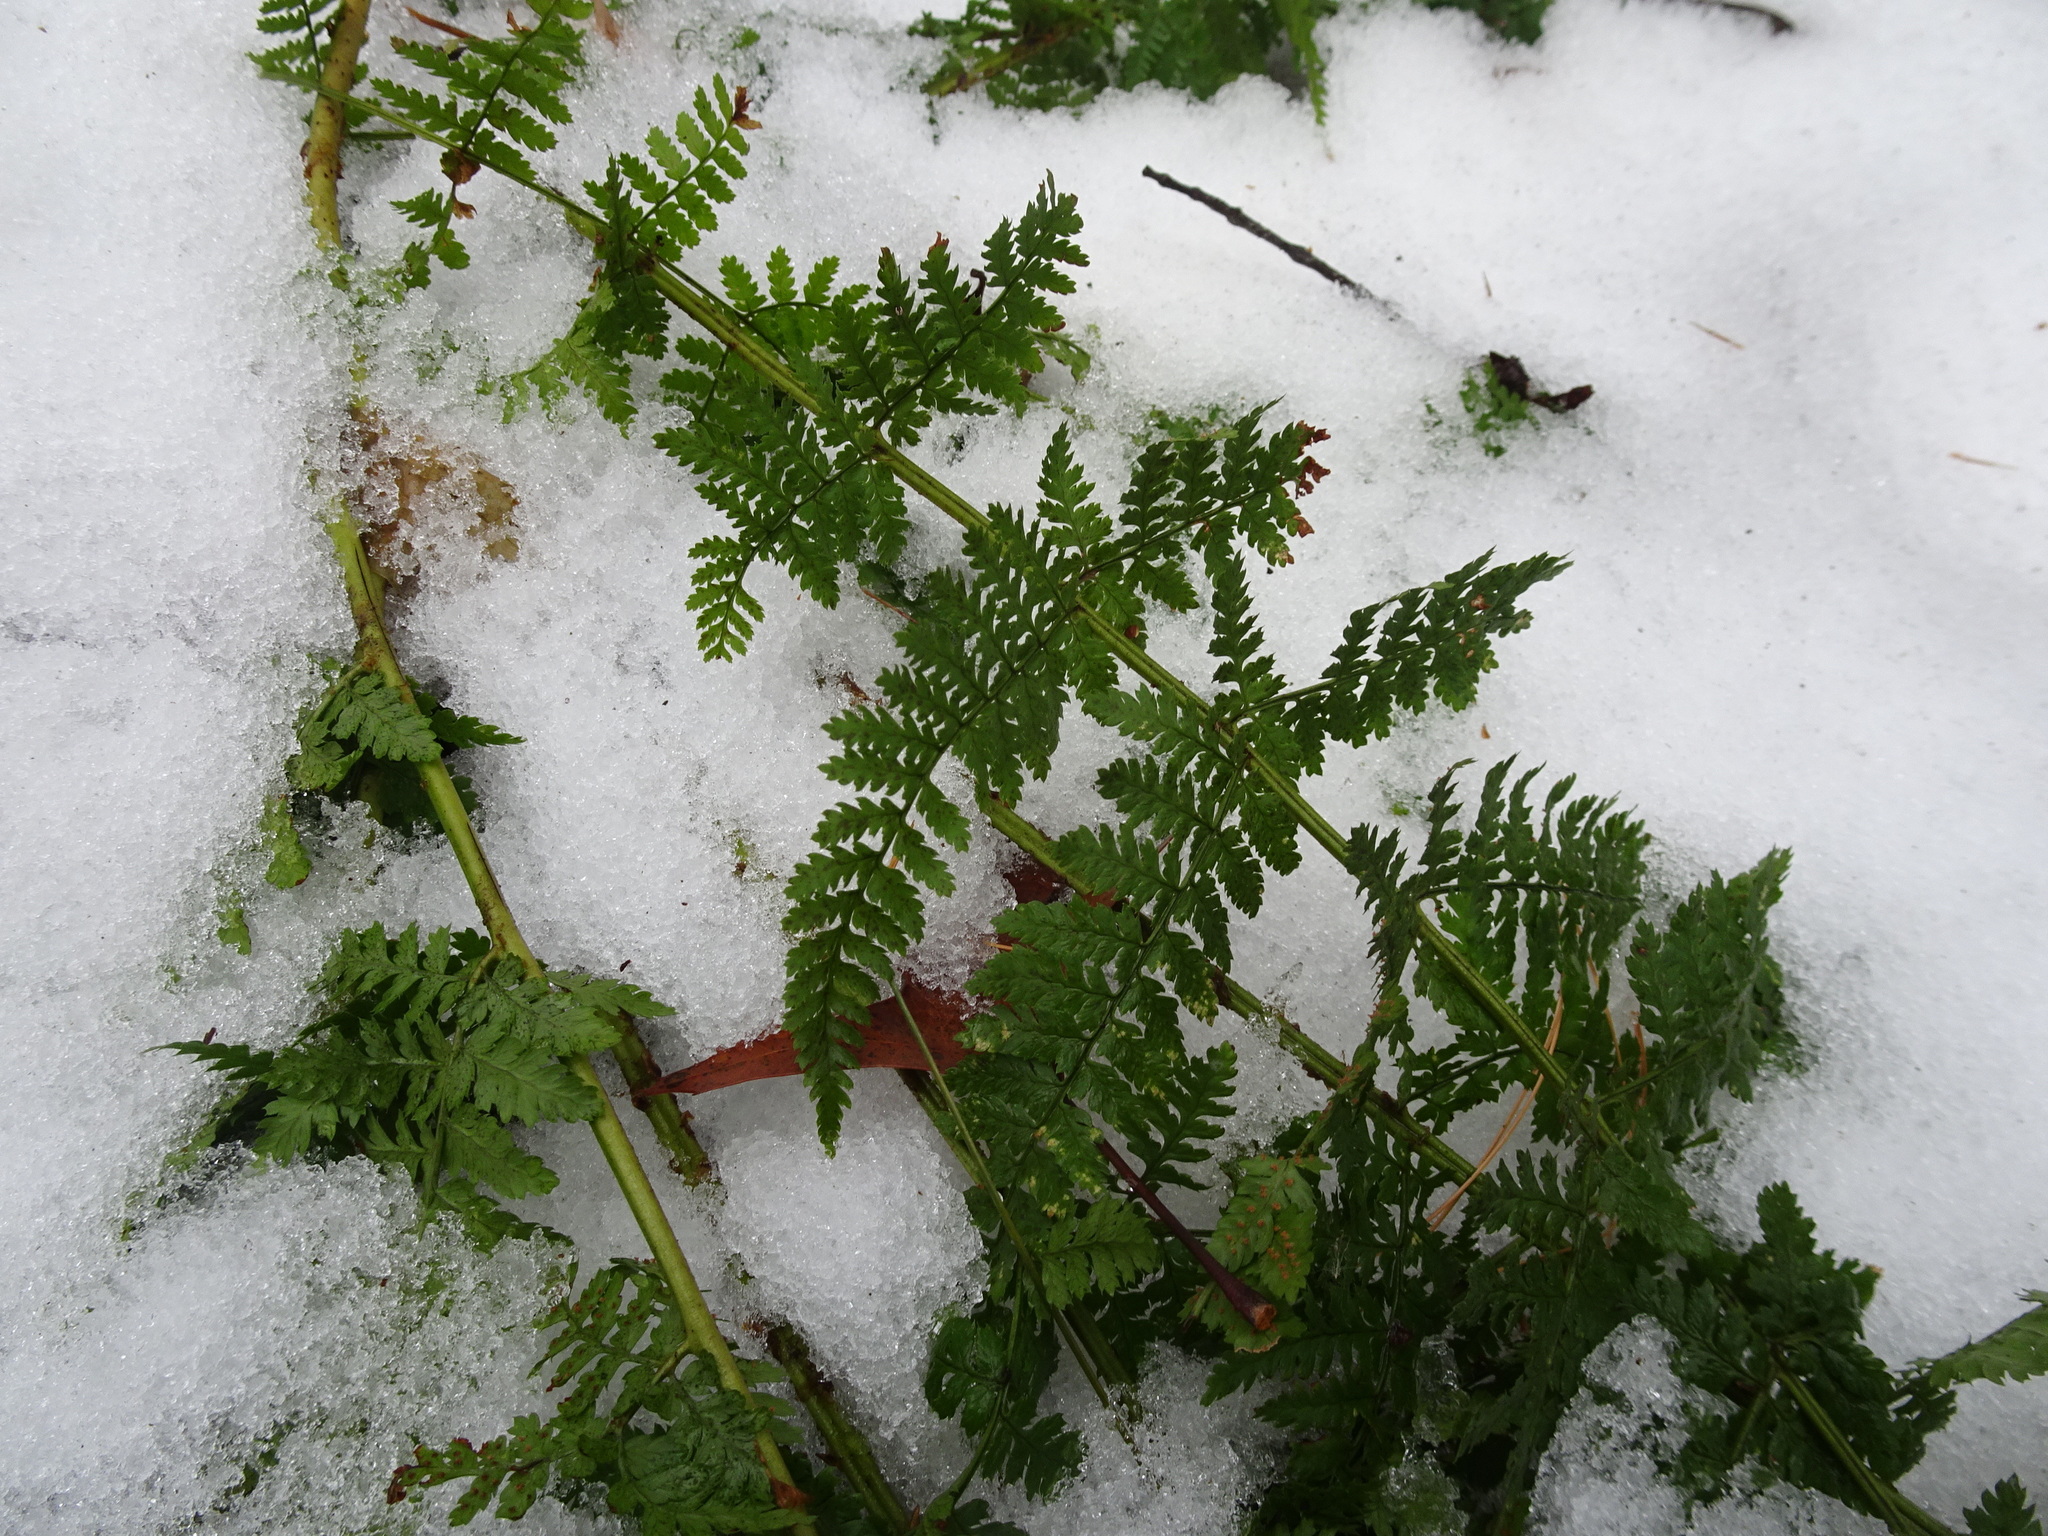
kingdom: Plantae
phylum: Tracheophyta
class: Polypodiopsida
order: Polypodiales
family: Dryopteridaceae
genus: Dryopteris
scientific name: Dryopteris intermedia
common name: Evergreen wood fern
